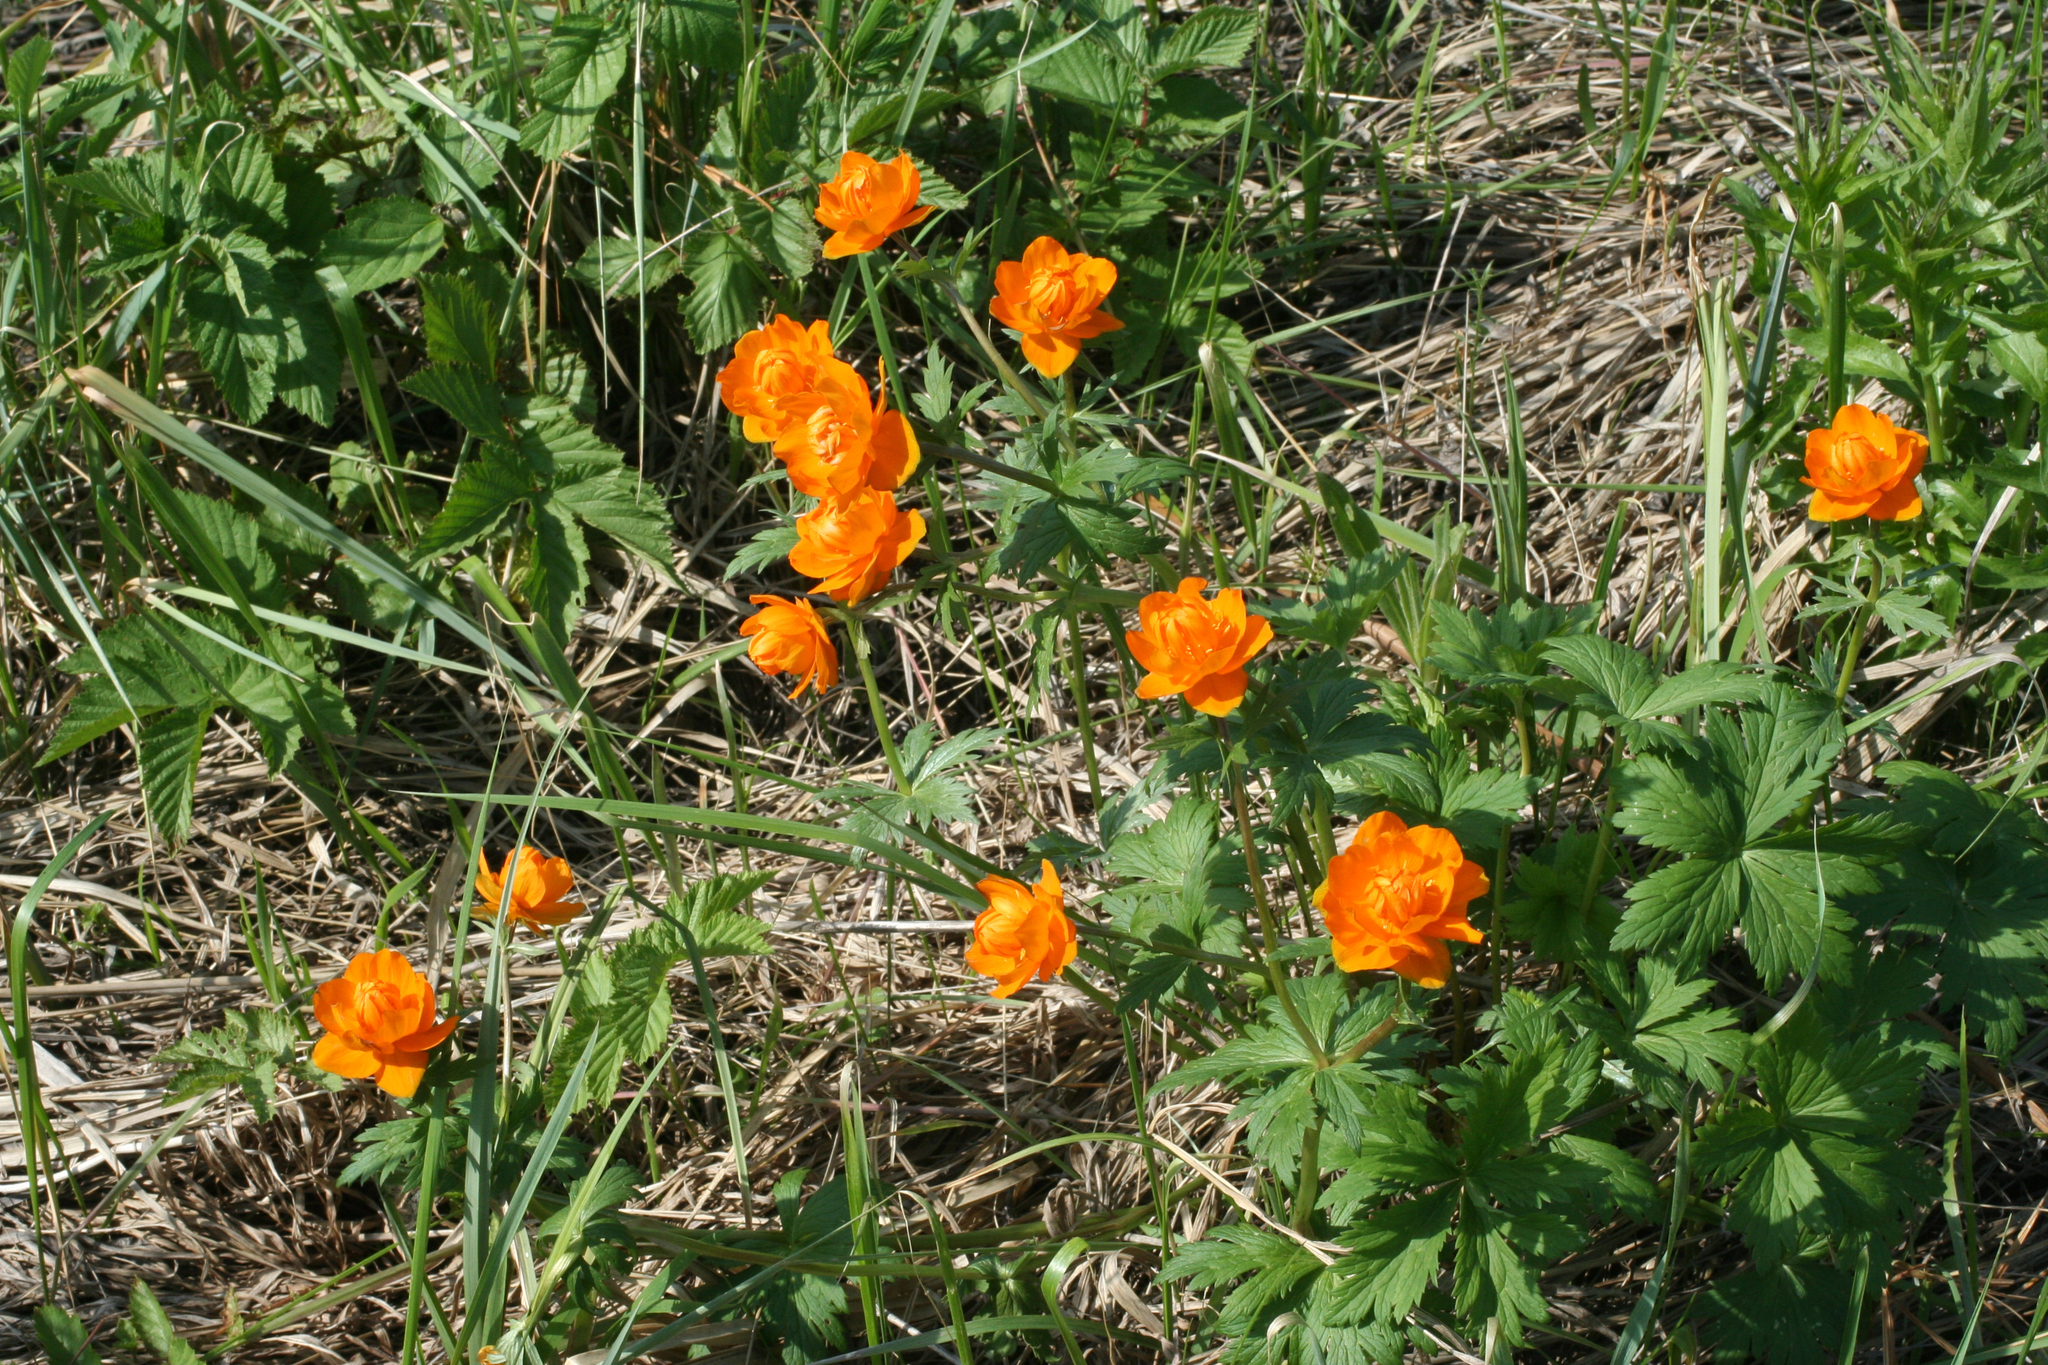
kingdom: Plantae
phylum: Tracheophyta
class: Magnoliopsida
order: Ranunculales
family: Ranunculaceae
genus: Trollius
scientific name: Trollius asiaticus
